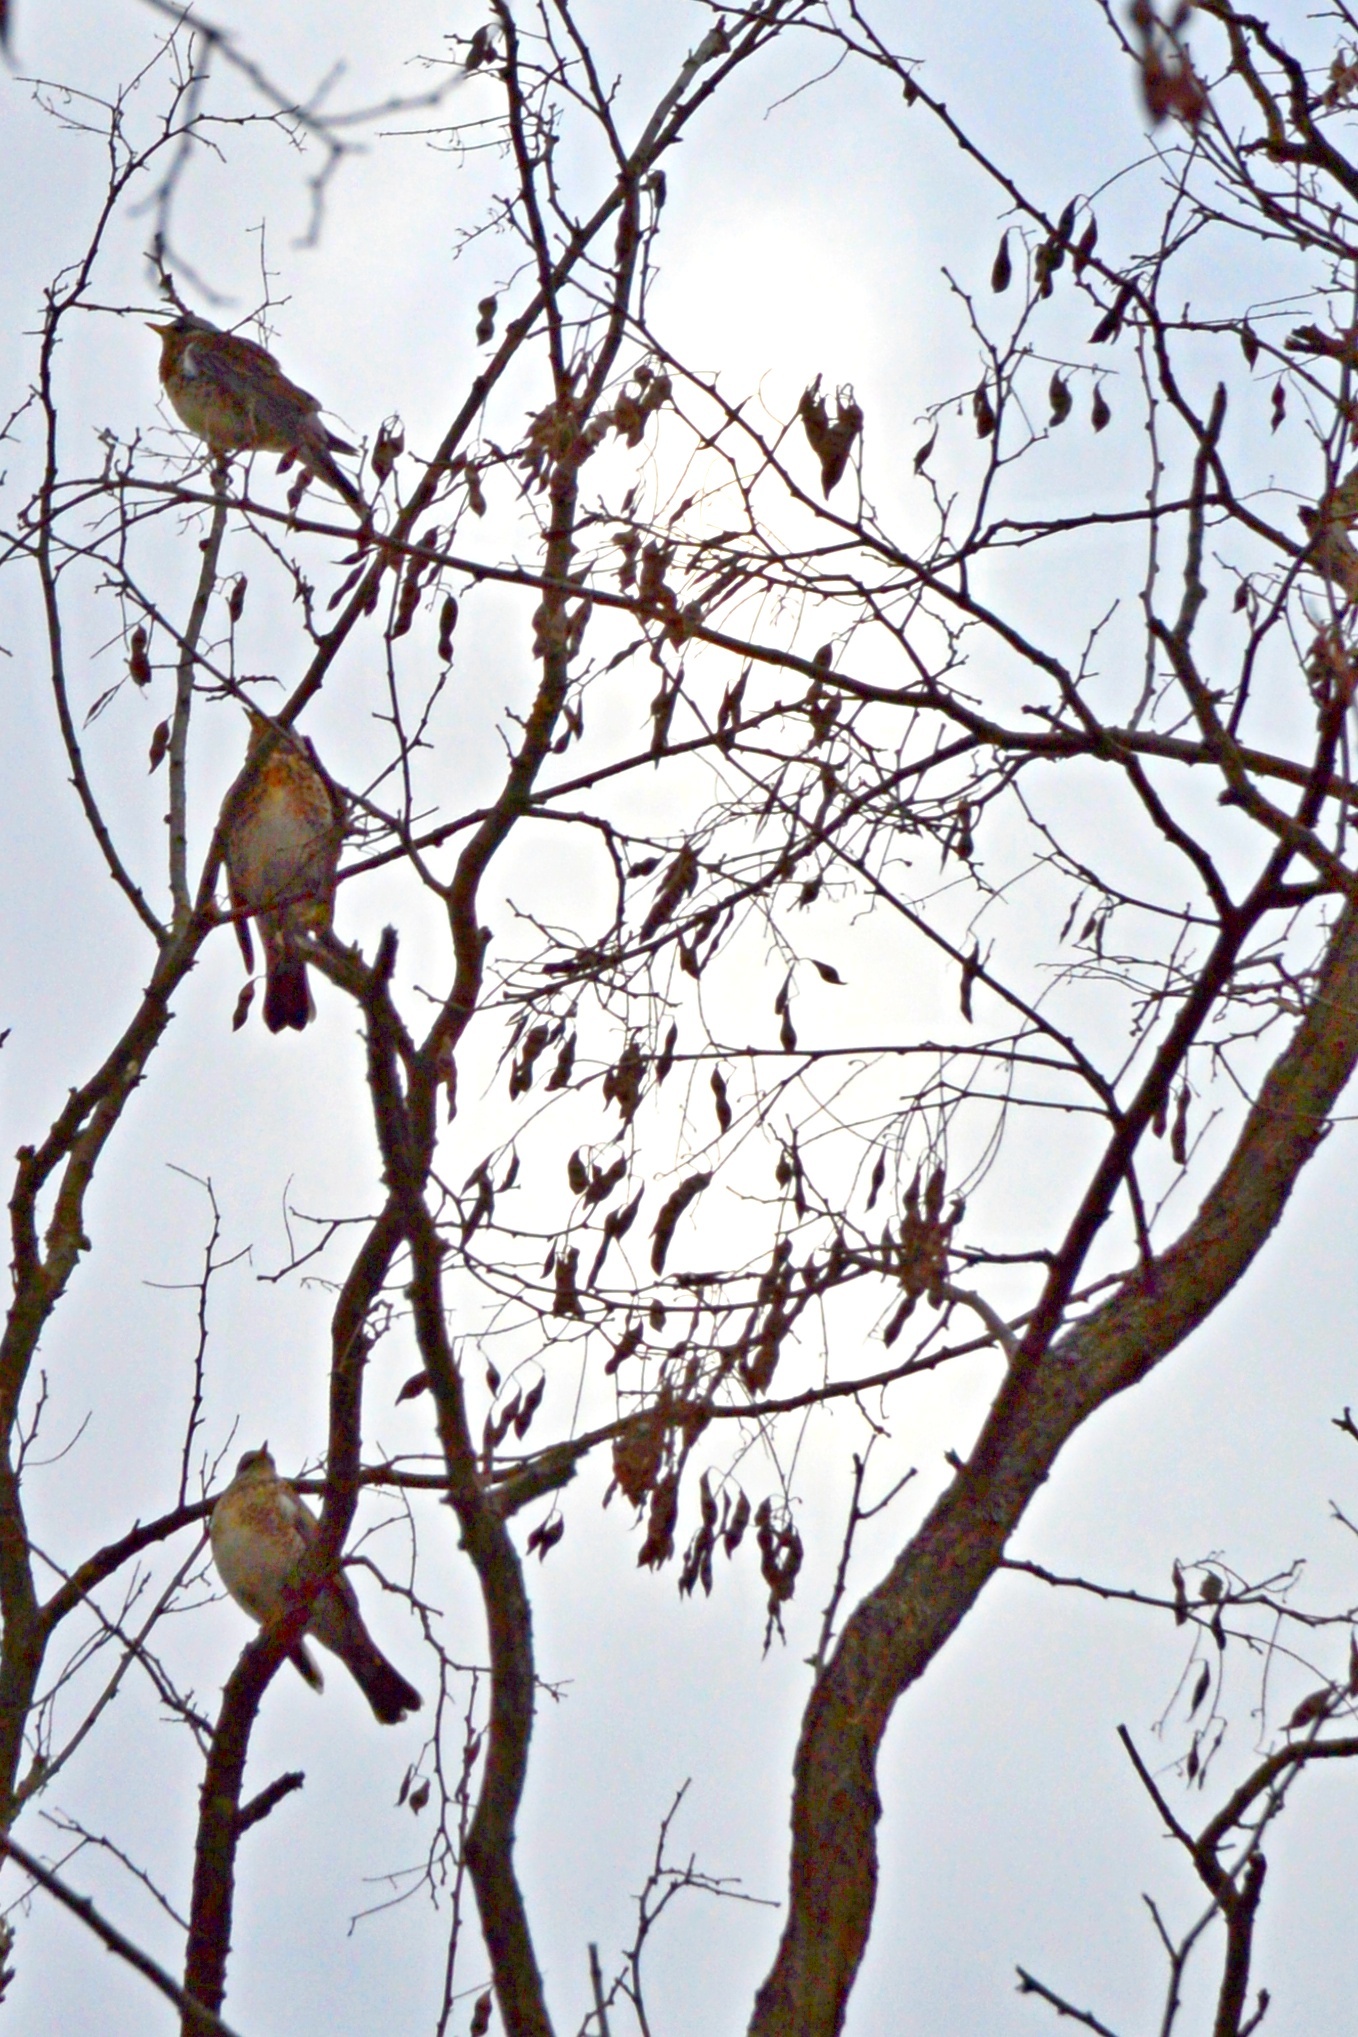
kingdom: Animalia
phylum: Chordata
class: Aves
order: Passeriformes
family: Turdidae
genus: Turdus
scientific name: Turdus pilaris
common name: Fieldfare
